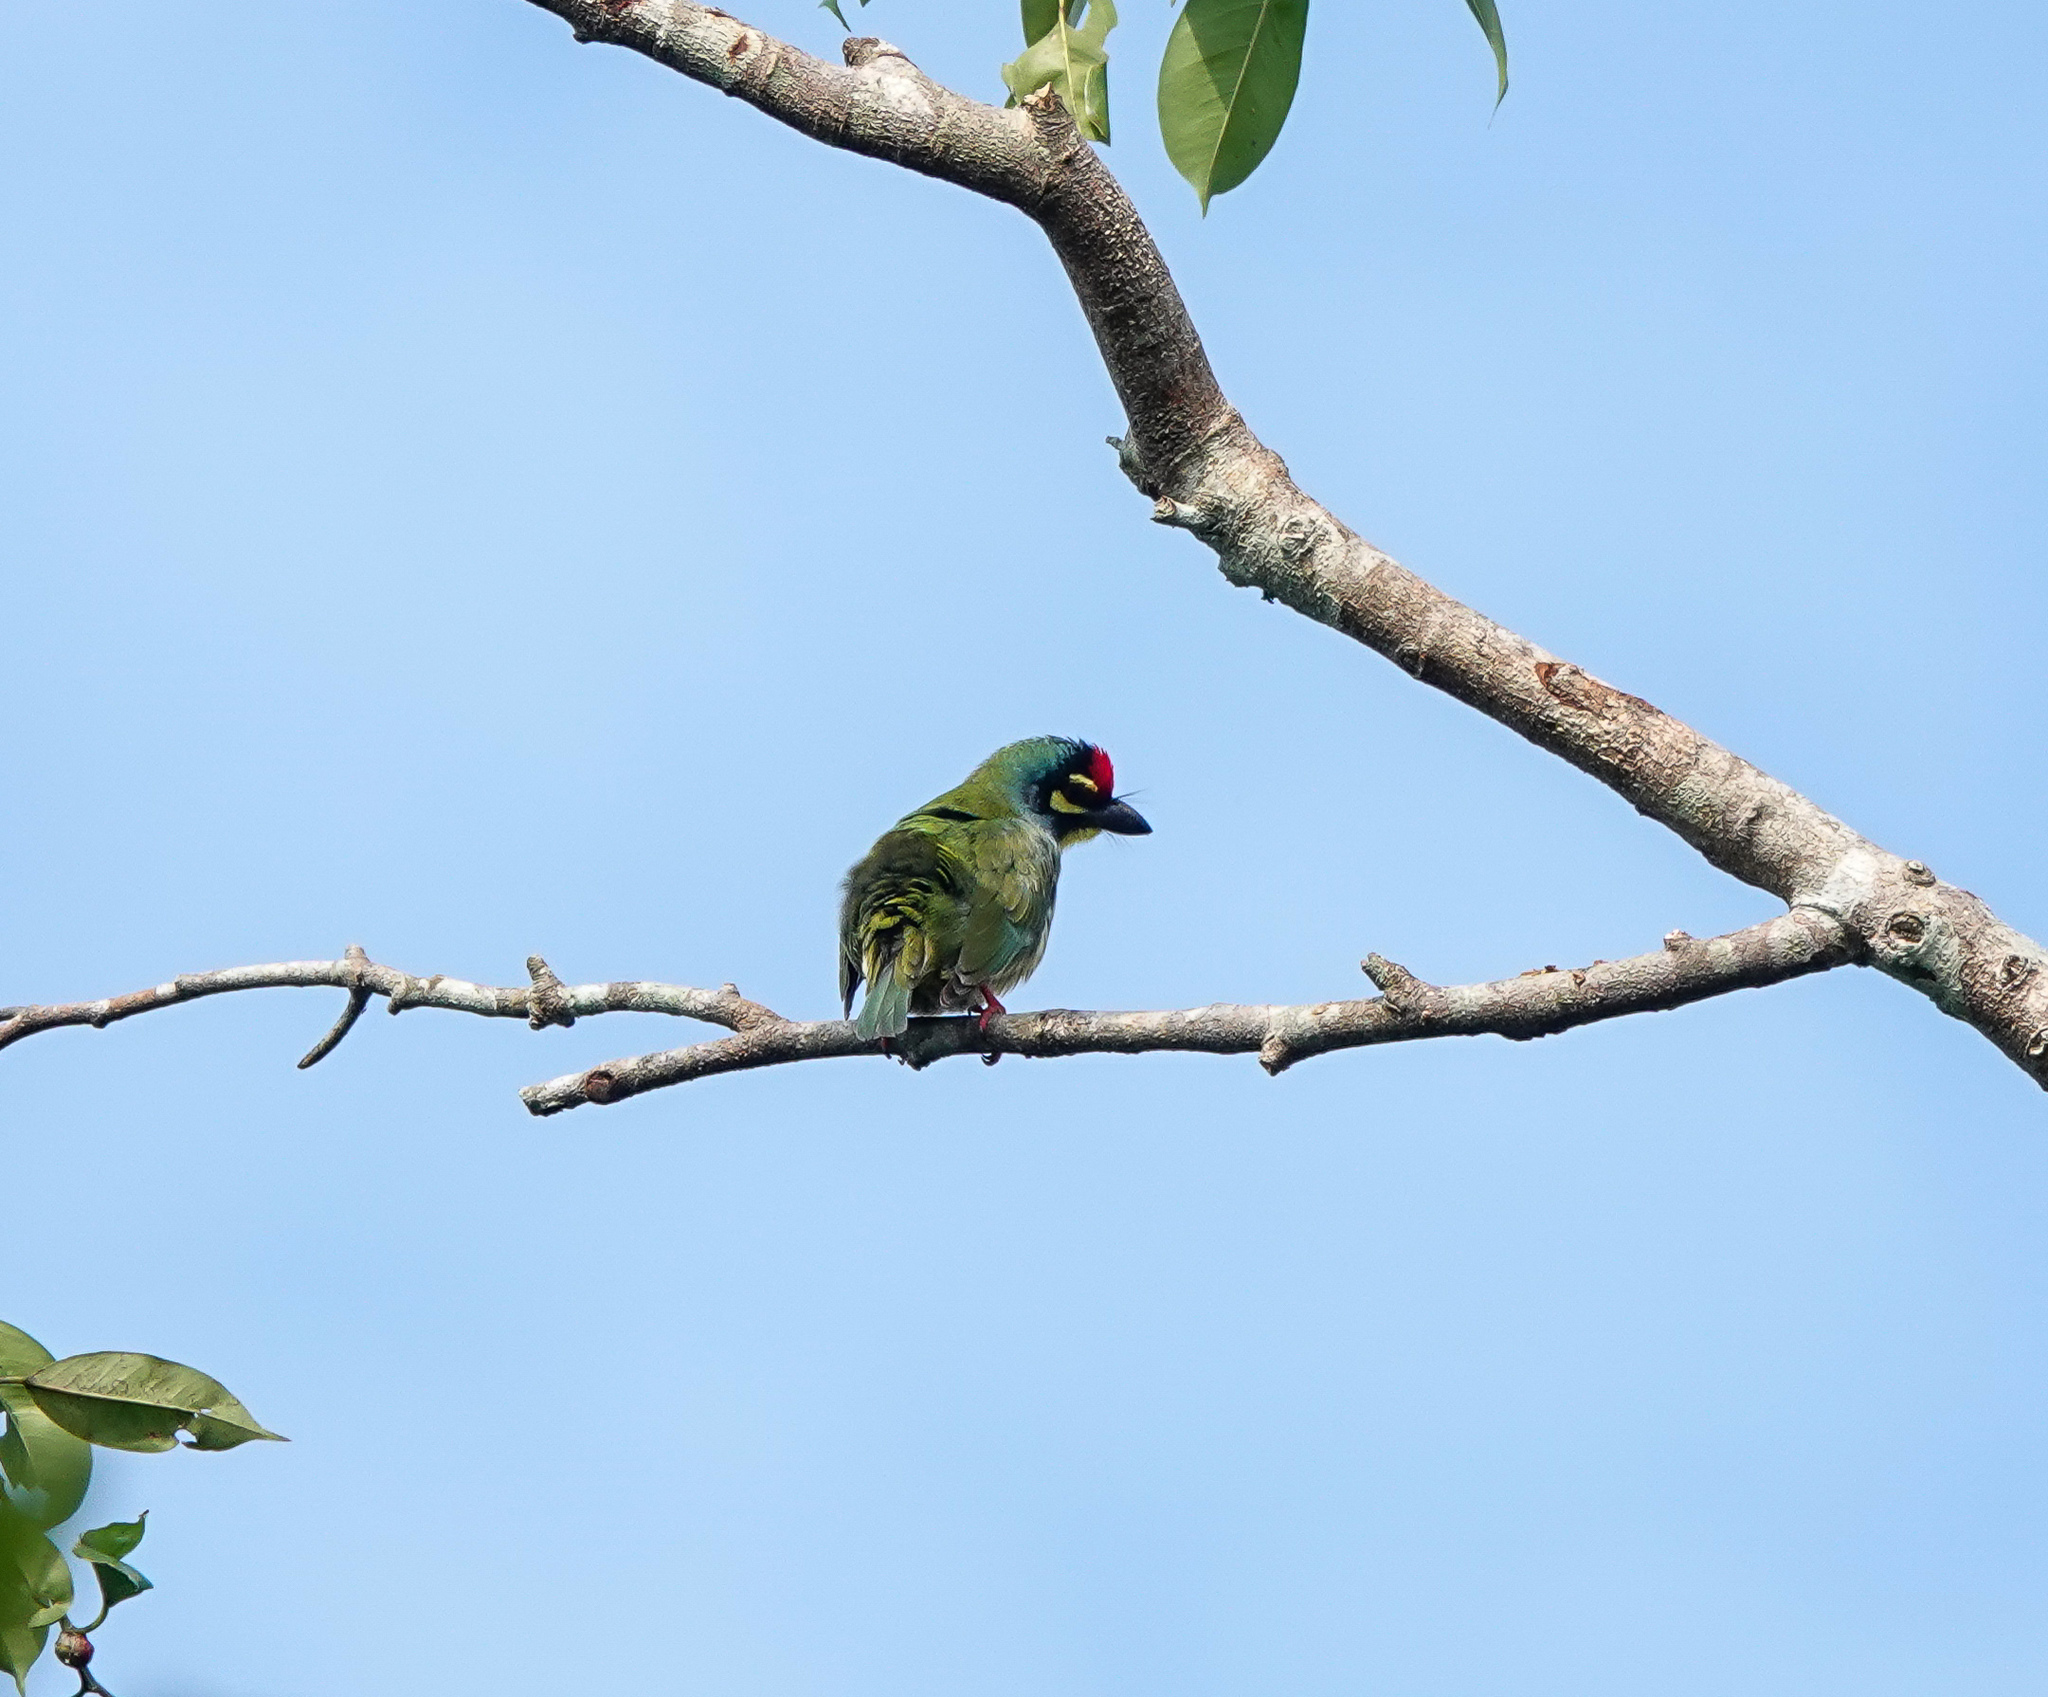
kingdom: Animalia
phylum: Chordata
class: Aves
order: Piciformes
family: Megalaimidae
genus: Psilopogon
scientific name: Psilopogon haemacephalus
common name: Coppersmith barbet
